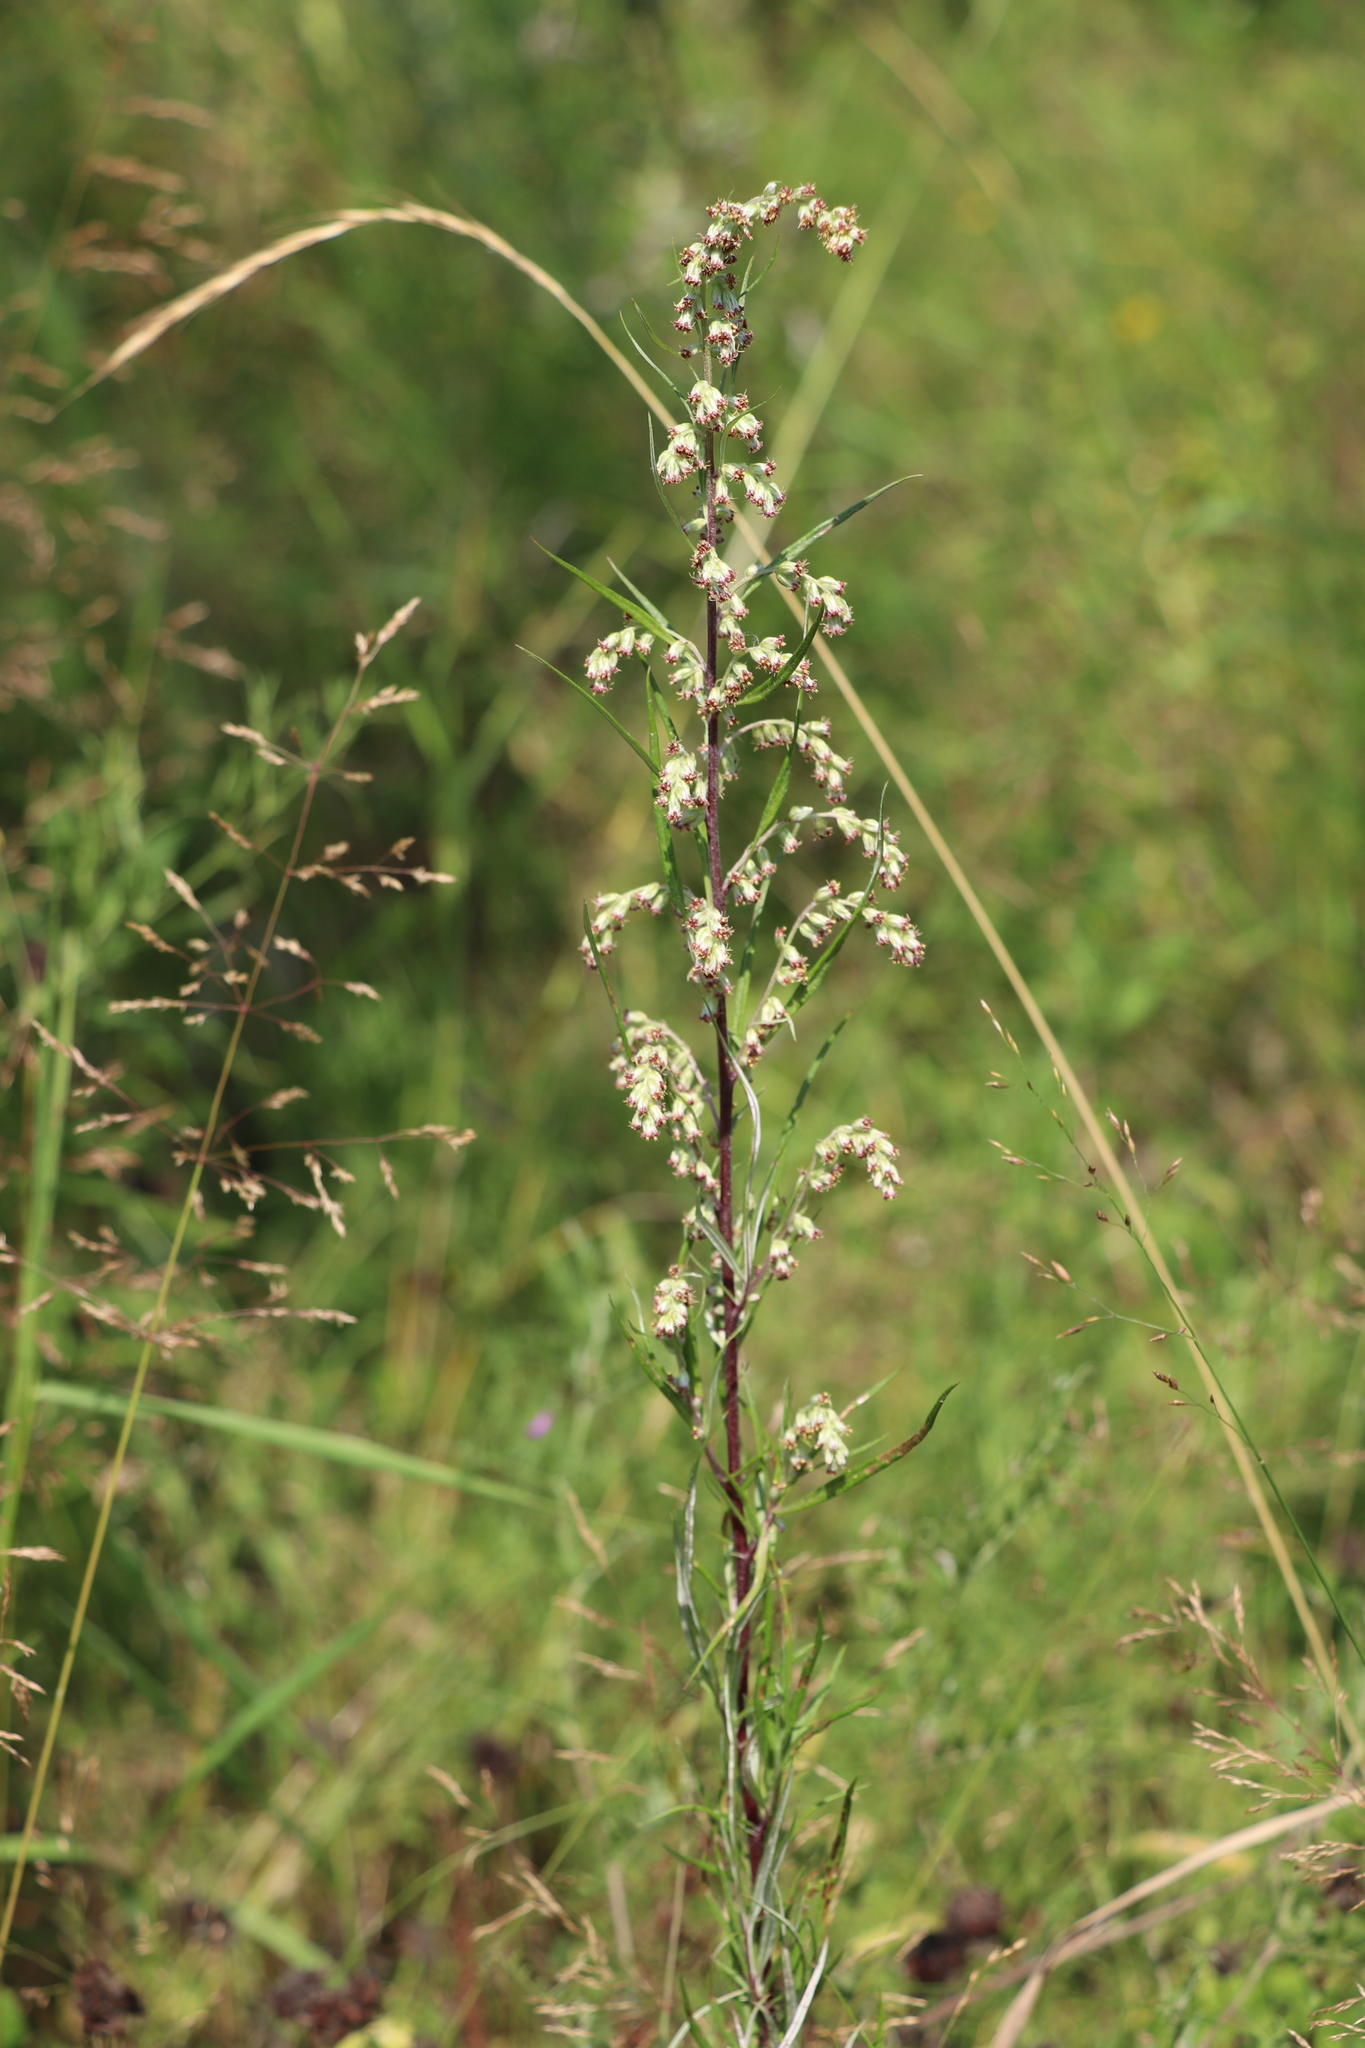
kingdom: Plantae
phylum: Tracheophyta
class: Magnoliopsida
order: Asterales
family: Asteraceae
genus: Artemisia
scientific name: Artemisia vulgaris
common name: Mugwort
